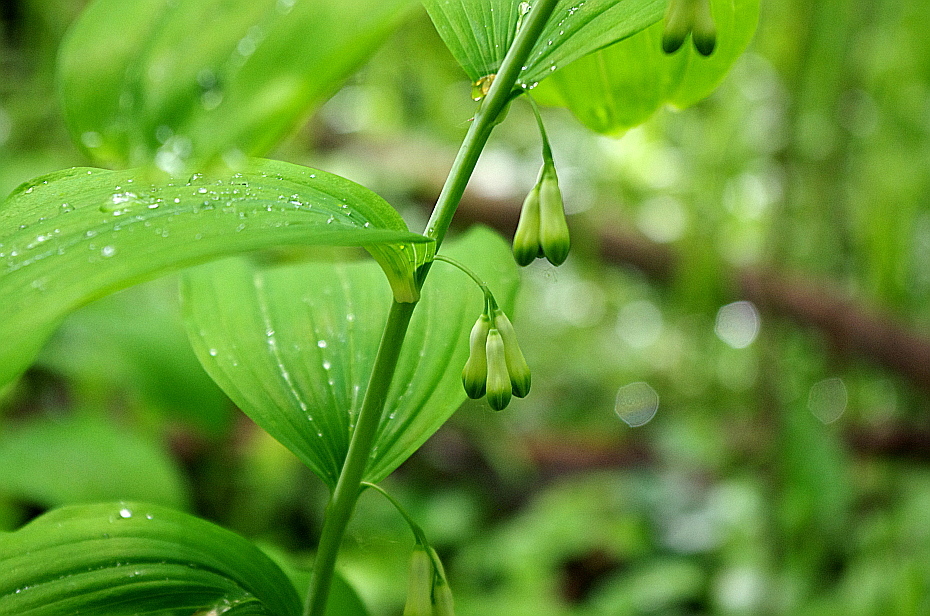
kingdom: Plantae
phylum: Tracheophyta
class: Liliopsida
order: Asparagales
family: Asparagaceae
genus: Polygonatum
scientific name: Polygonatum multiflorum
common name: Solomon's-seal
